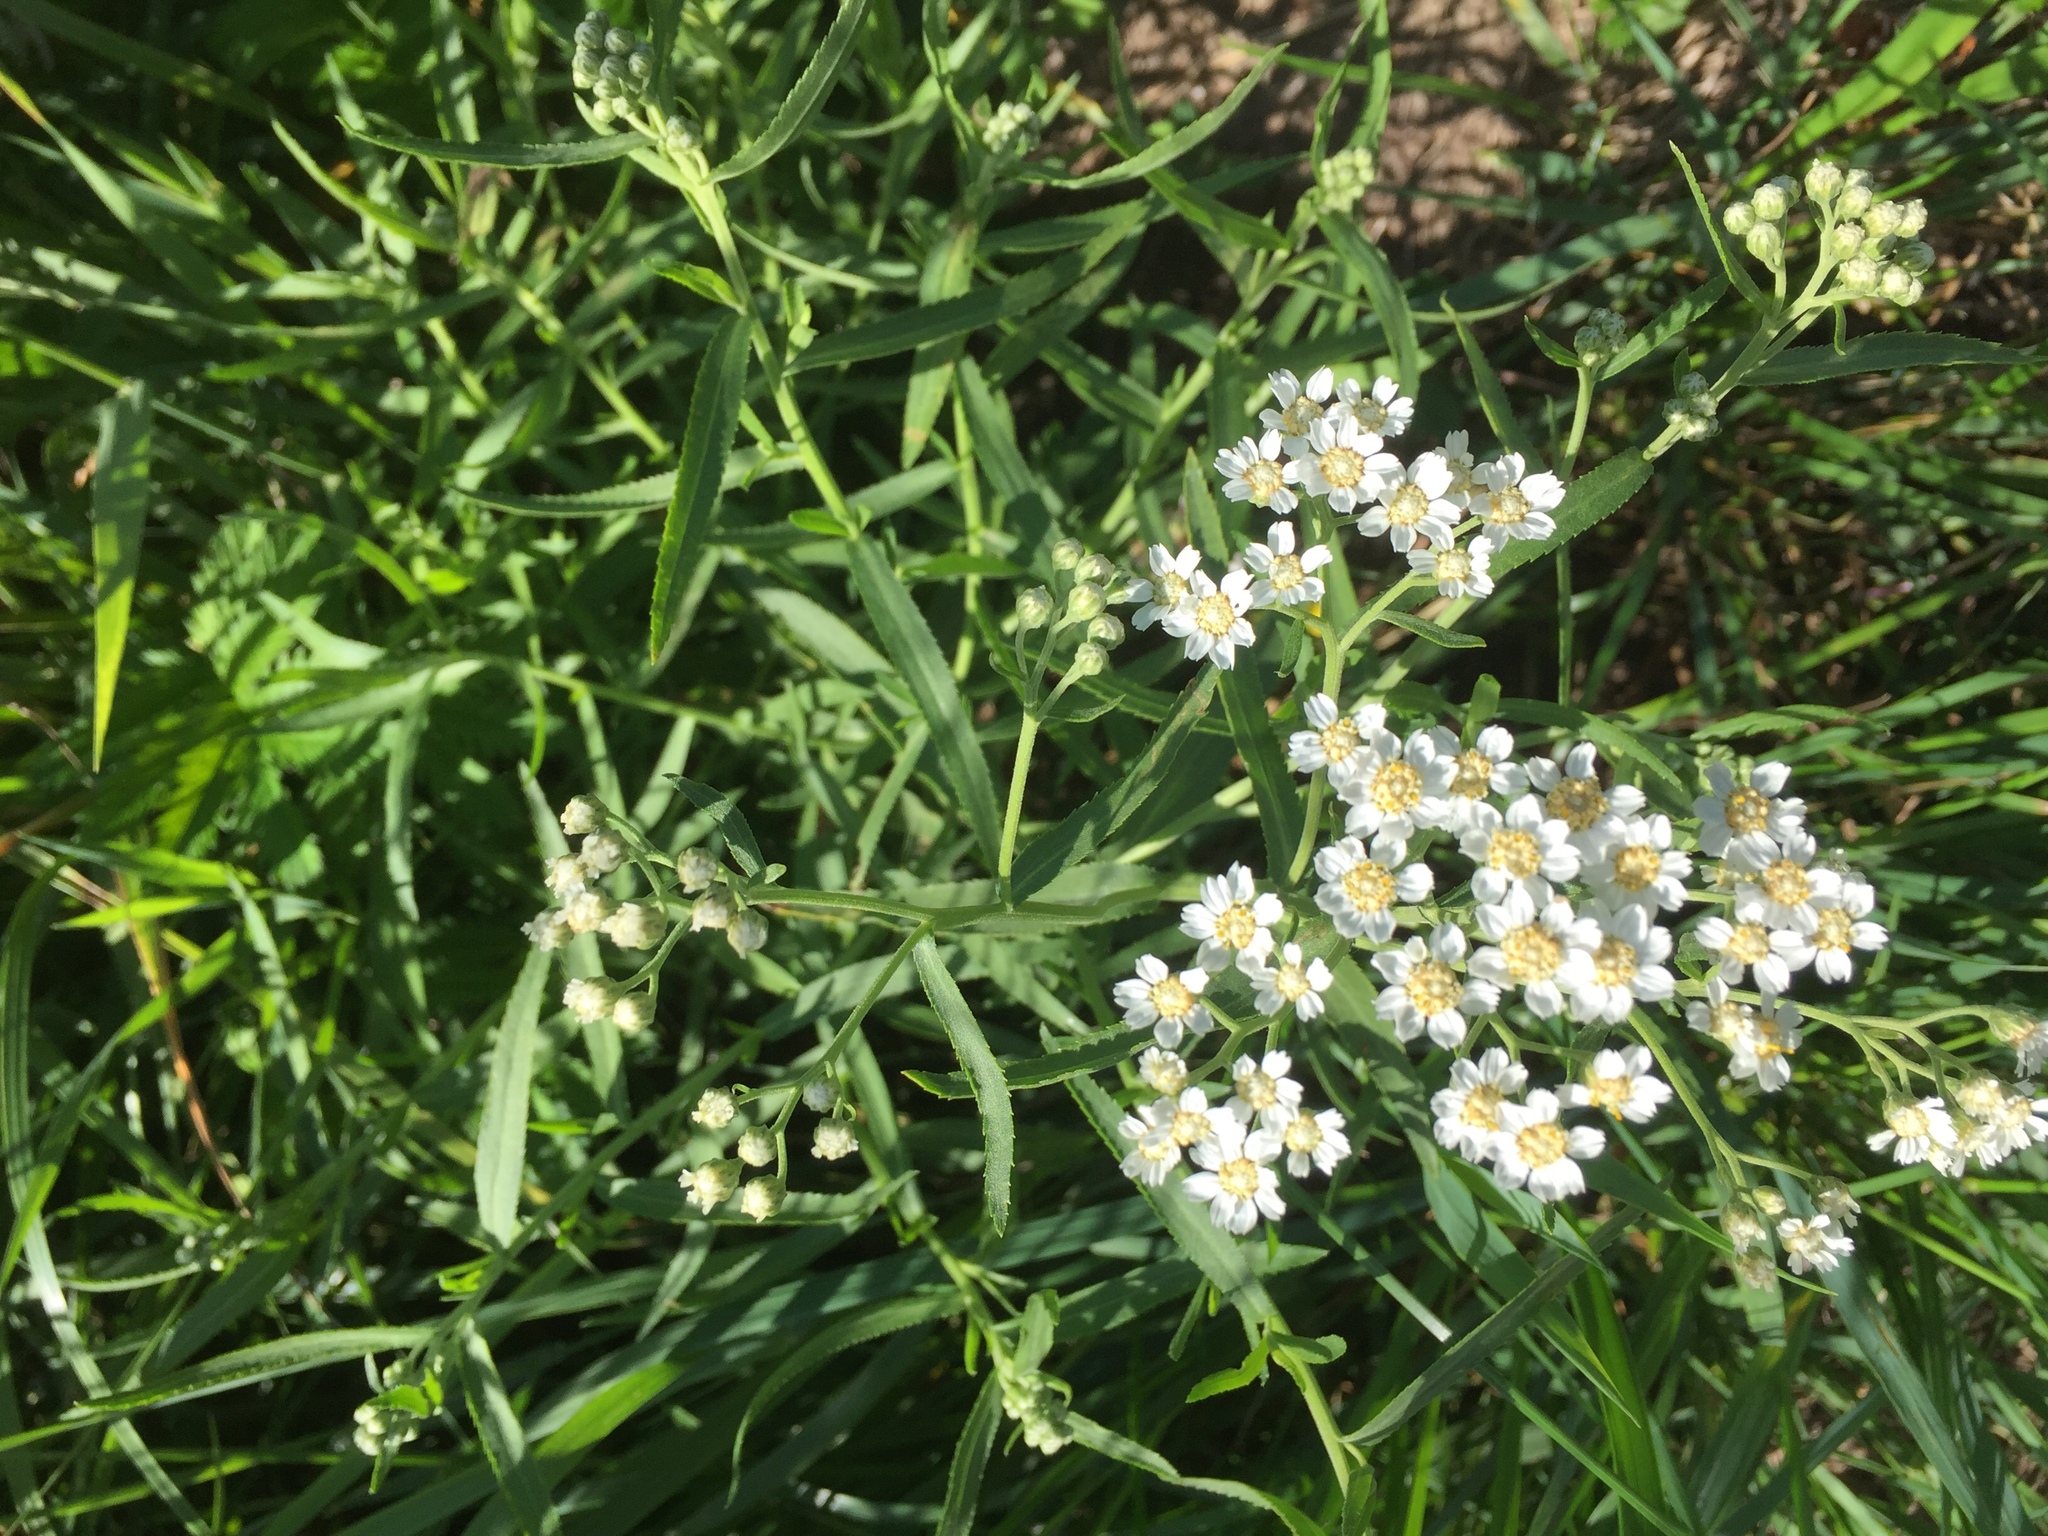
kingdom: Plantae
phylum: Tracheophyta
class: Magnoliopsida
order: Asterales
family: Asteraceae
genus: Achillea
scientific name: Achillea salicifolia
